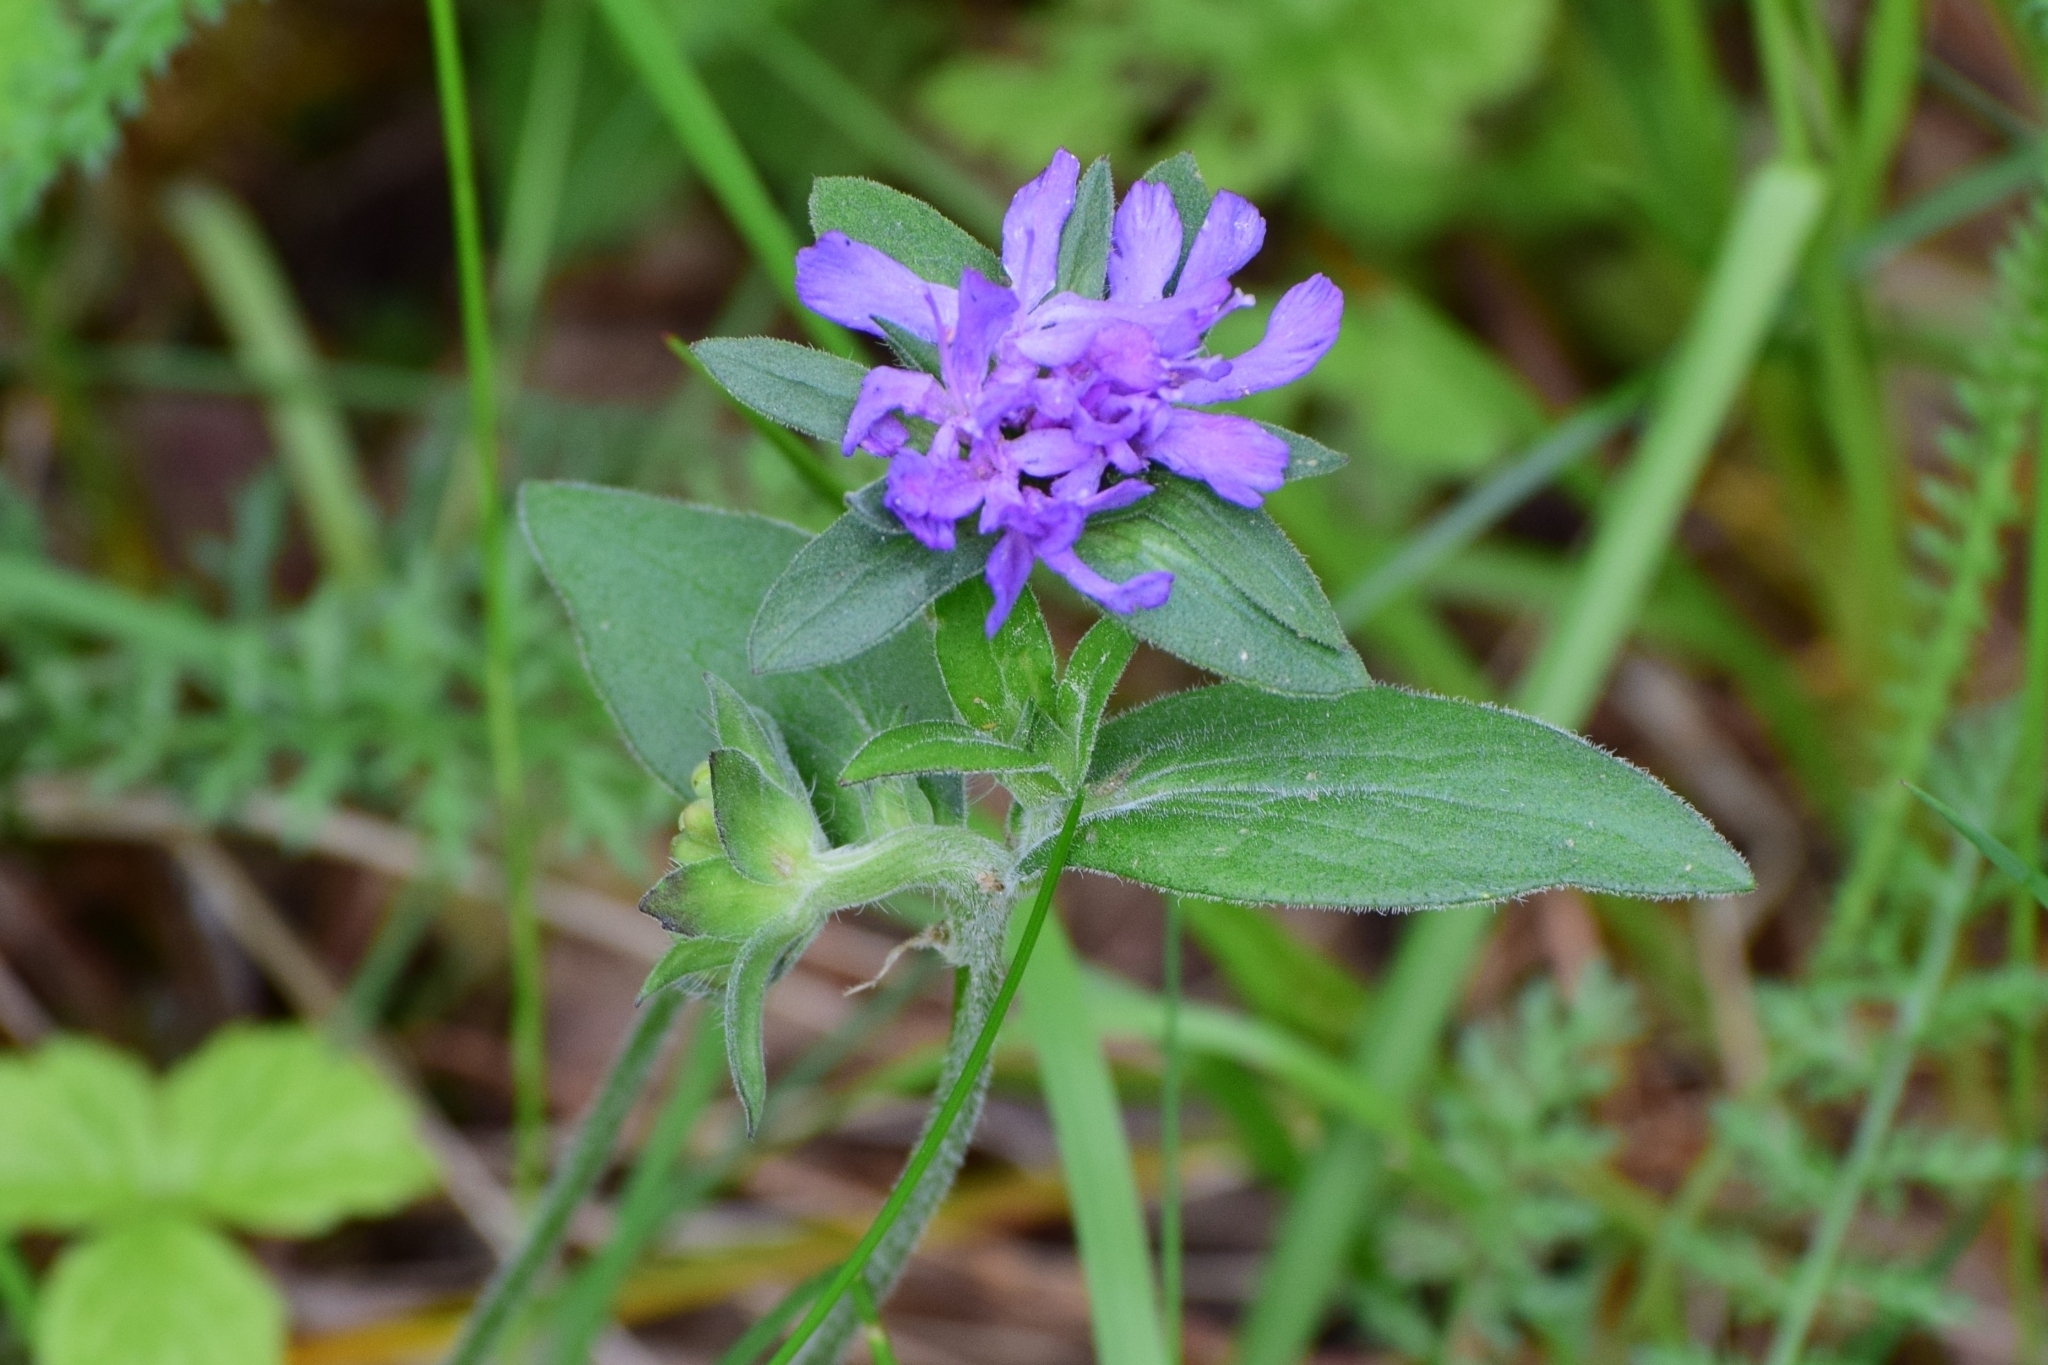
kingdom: Plantae
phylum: Tracheophyta
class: Magnoliopsida
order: Dipsacales
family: Caprifoliaceae
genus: Knautia
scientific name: Knautia arvensis
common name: Field scabiosa
